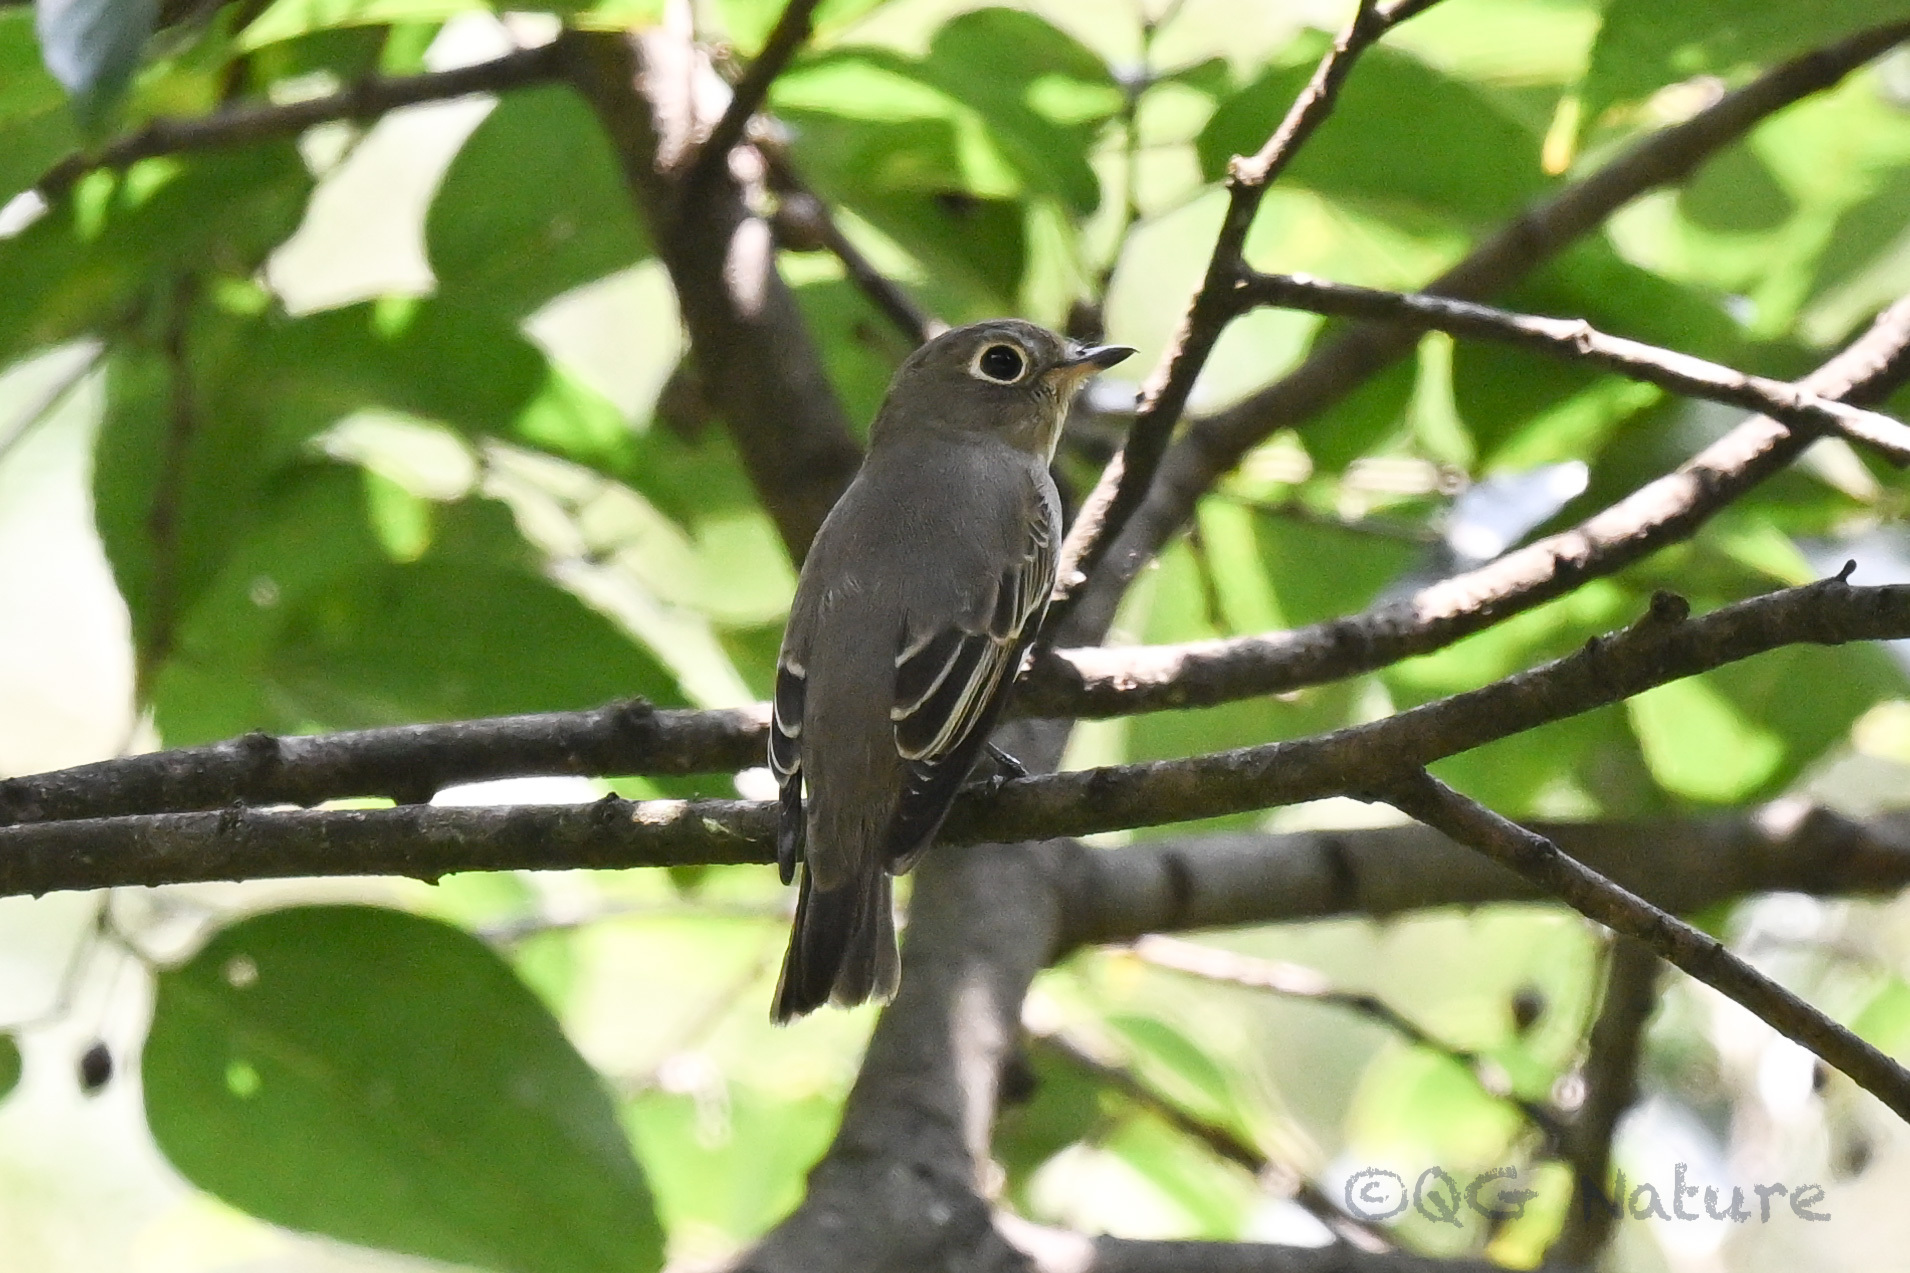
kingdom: Animalia
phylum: Chordata
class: Aves
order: Passeriformes
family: Muscicapidae
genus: Muscicapa
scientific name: Muscicapa latirostris
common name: Asian brown flycatcher
